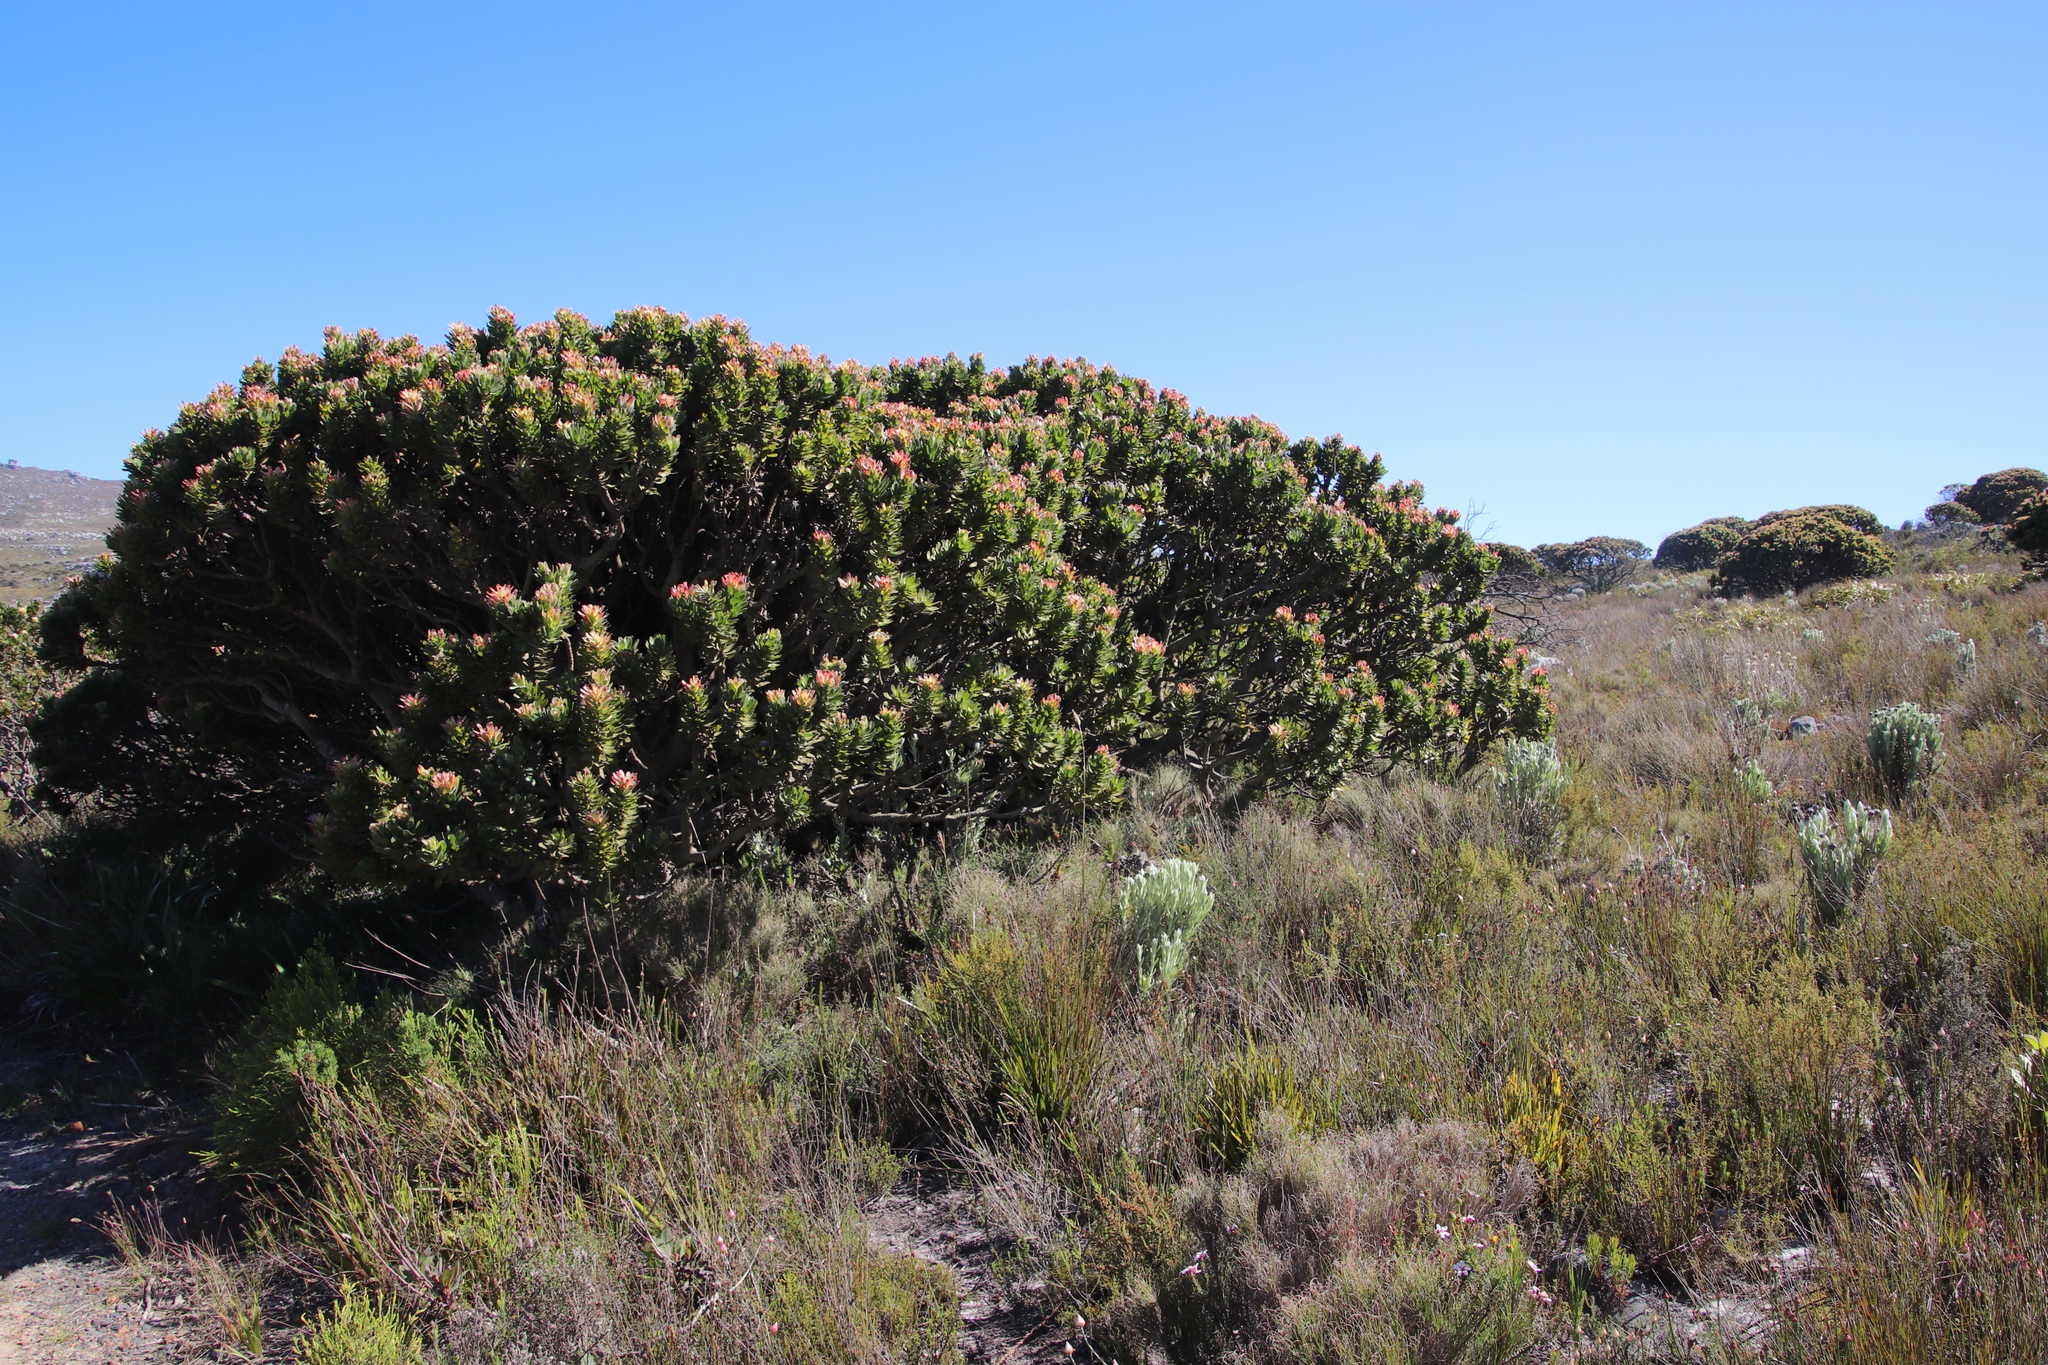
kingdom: Plantae
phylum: Tracheophyta
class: Magnoliopsida
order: Proteales
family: Proteaceae
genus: Mimetes
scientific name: Mimetes fimbriifolius
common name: Fringed bottlebrush
